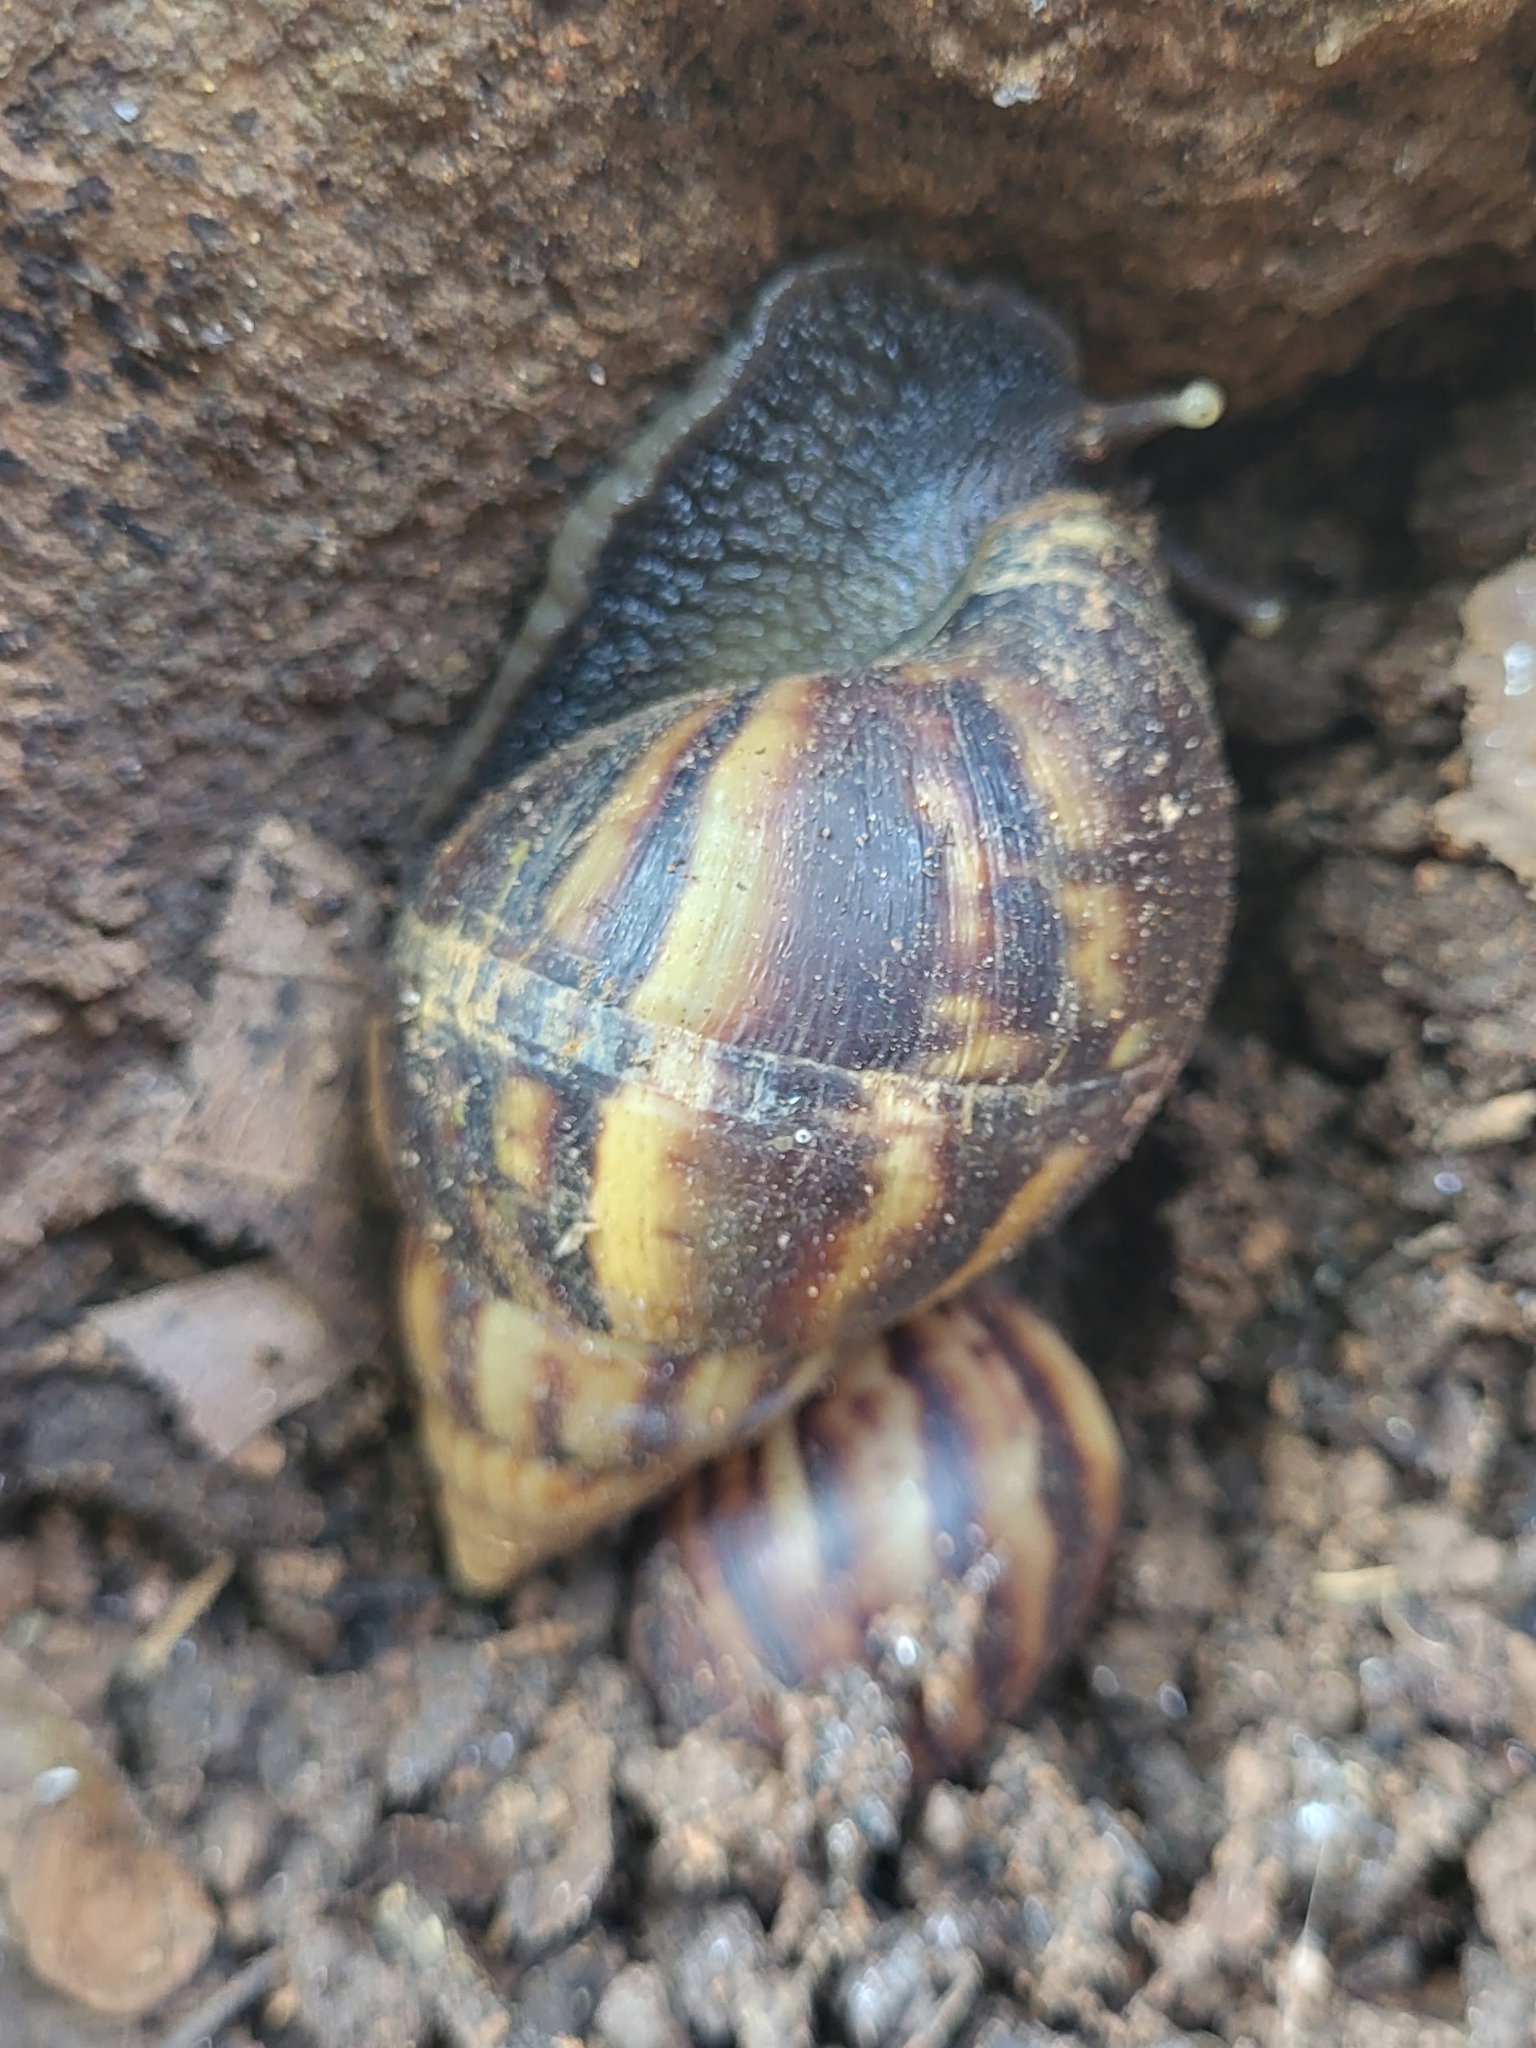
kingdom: Animalia
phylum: Mollusca
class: Gastropoda
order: Stylommatophora
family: Achatinidae
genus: Lissachatina
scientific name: Lissachatina fulica
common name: Giant african snail
